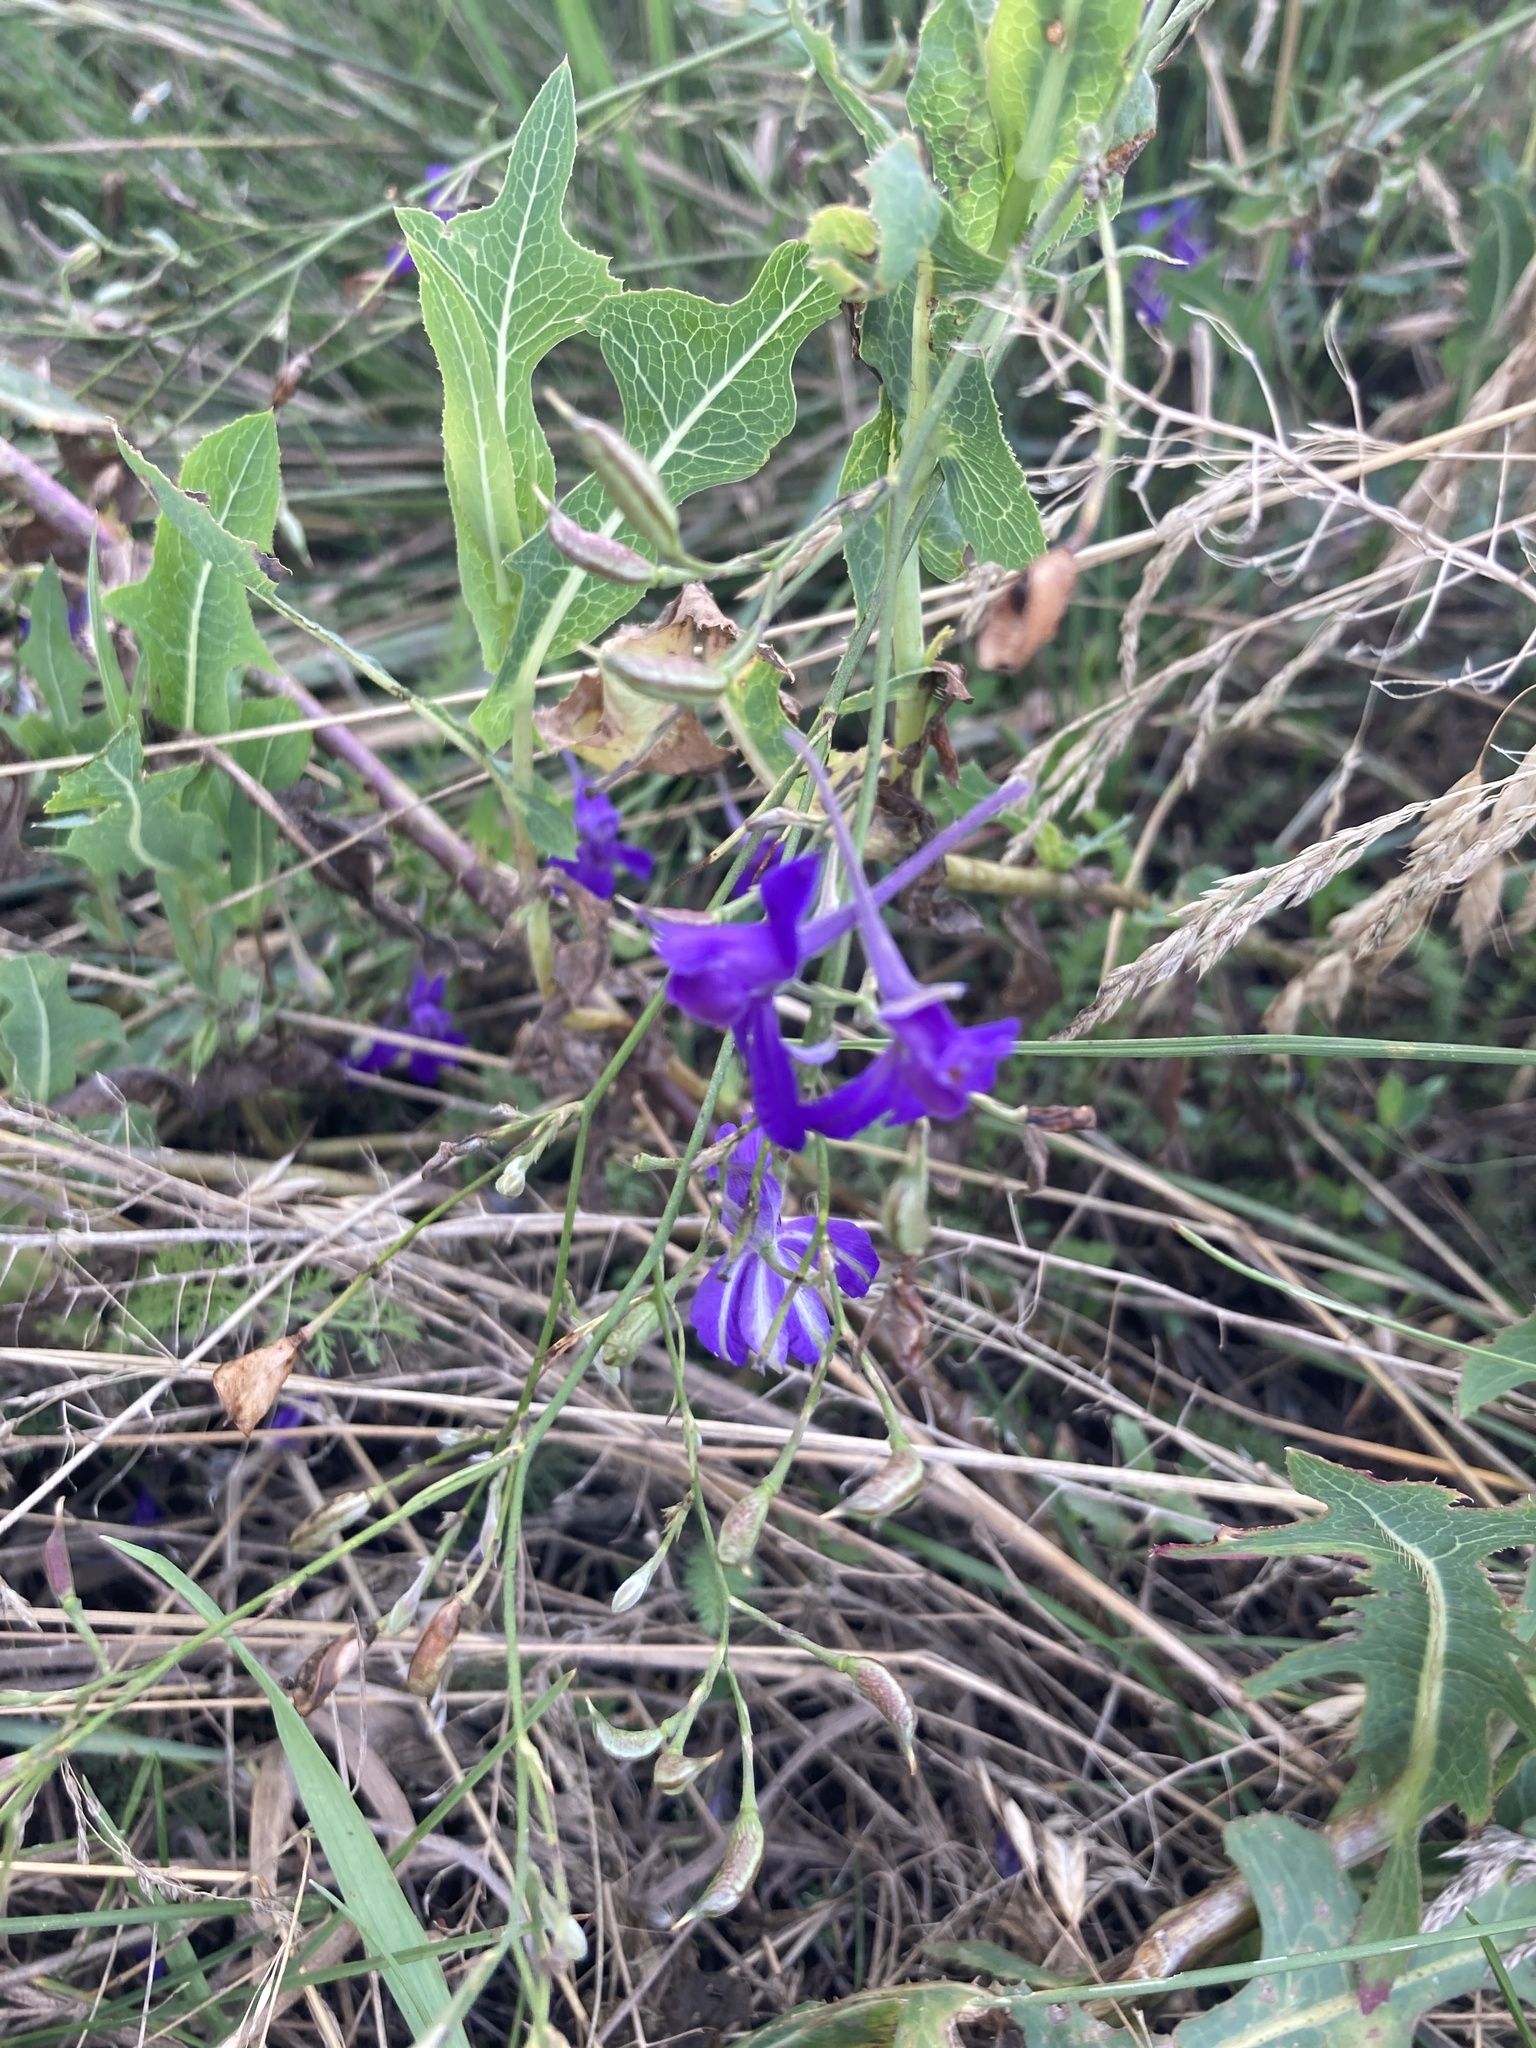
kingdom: Plantae
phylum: Tracheophyta
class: Magnoliopsida
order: Ranunculales
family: Ranunculaceae
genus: Delphinium
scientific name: Delphinium consolida
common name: Branching larkspur
